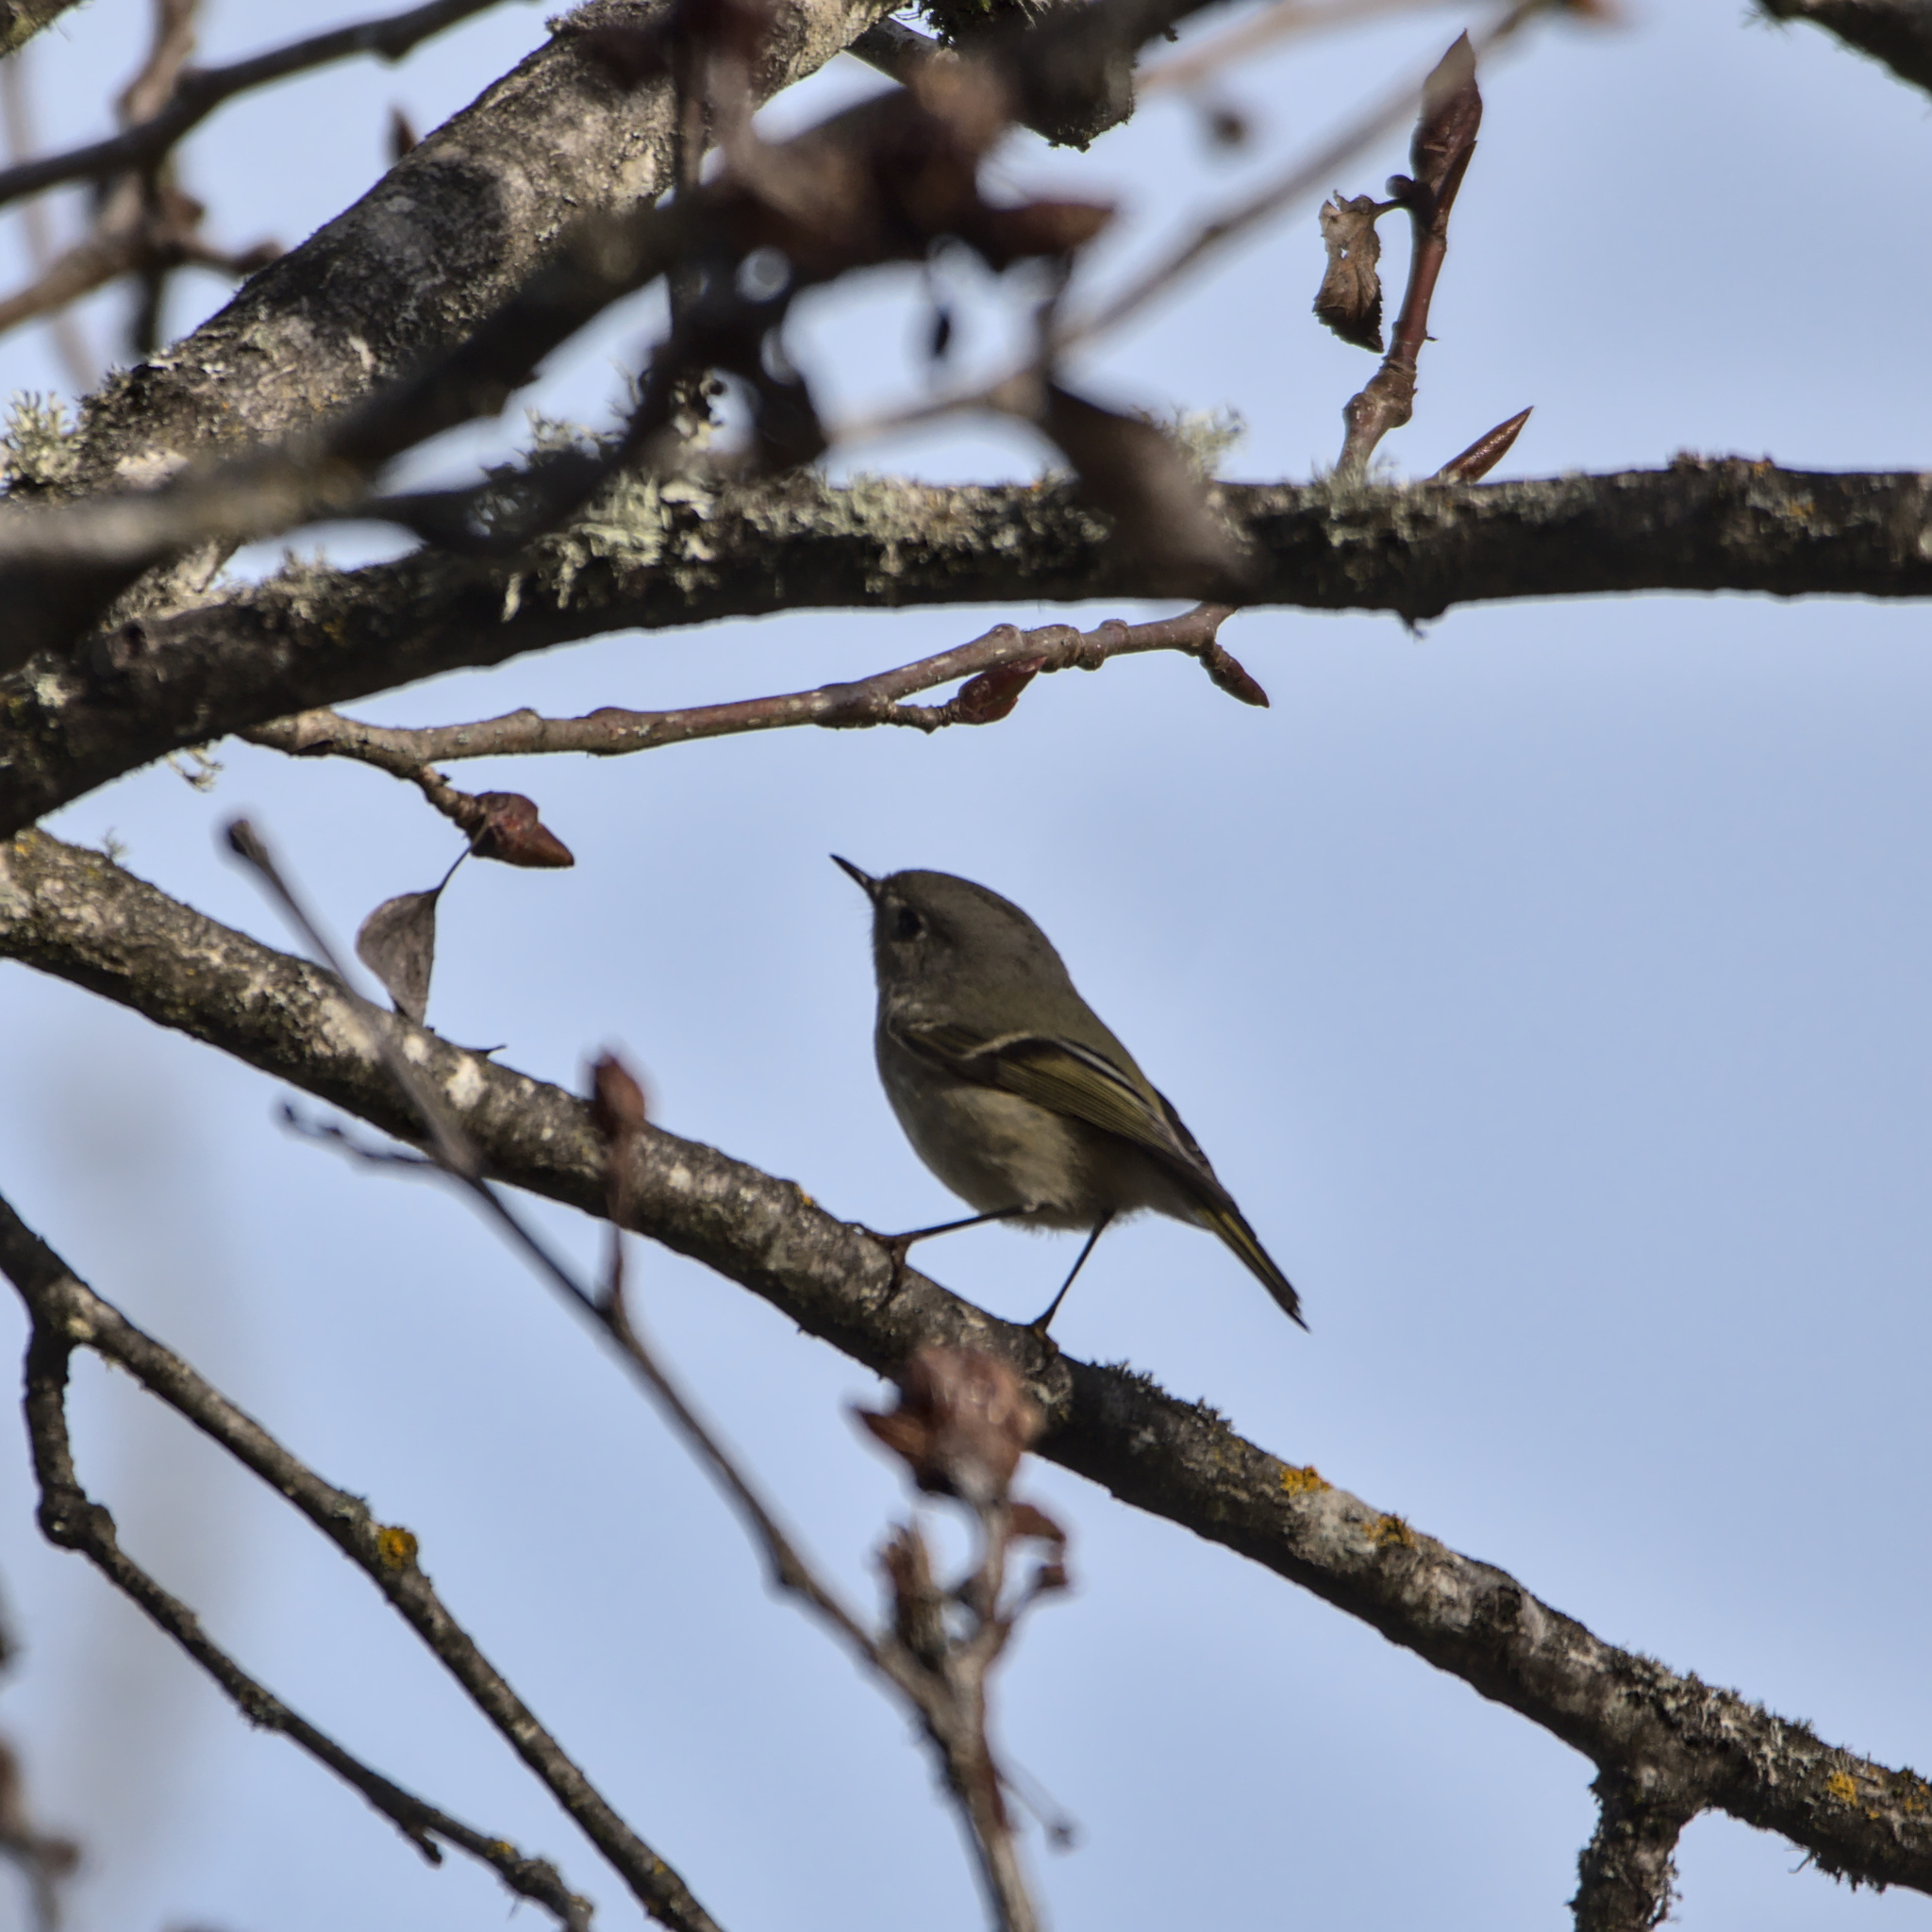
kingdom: Animalia
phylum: Chordata
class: Aves
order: Passeriformes
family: Regulidae
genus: Regulus
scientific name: Regulus calendula
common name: Ruby-crowned kinglet
